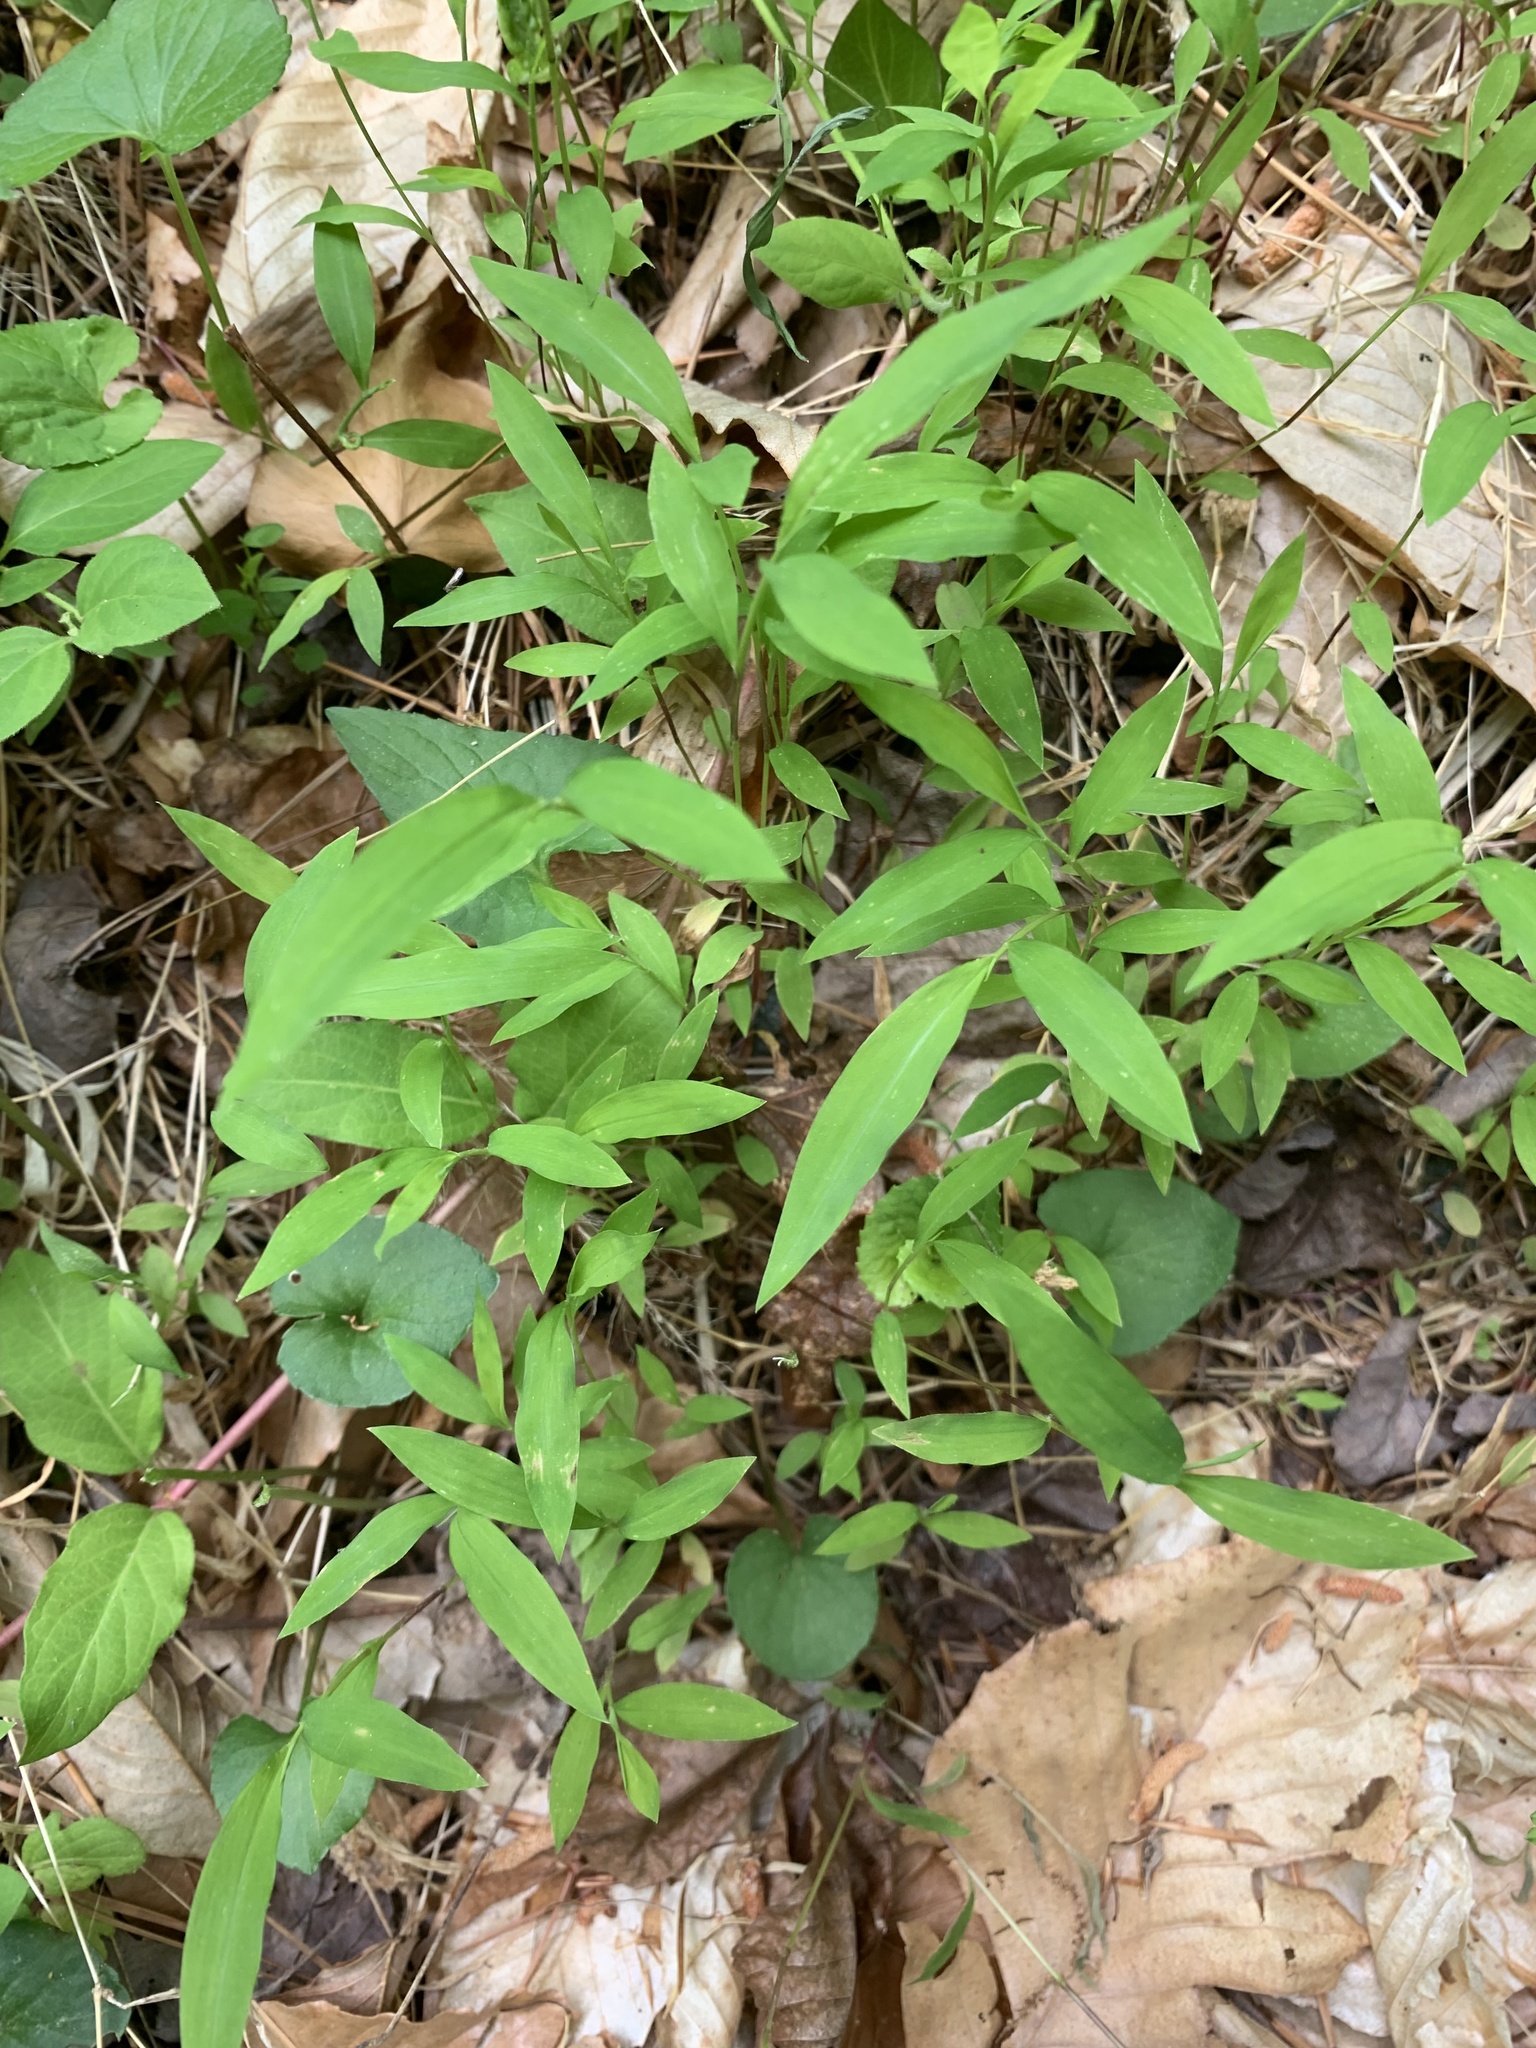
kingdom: Plantae
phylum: Tracheophyta
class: Liliopsida
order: Poales
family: Poaceae
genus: Microstegium
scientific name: Microstegium vimineum
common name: Japanese stiltgrass
